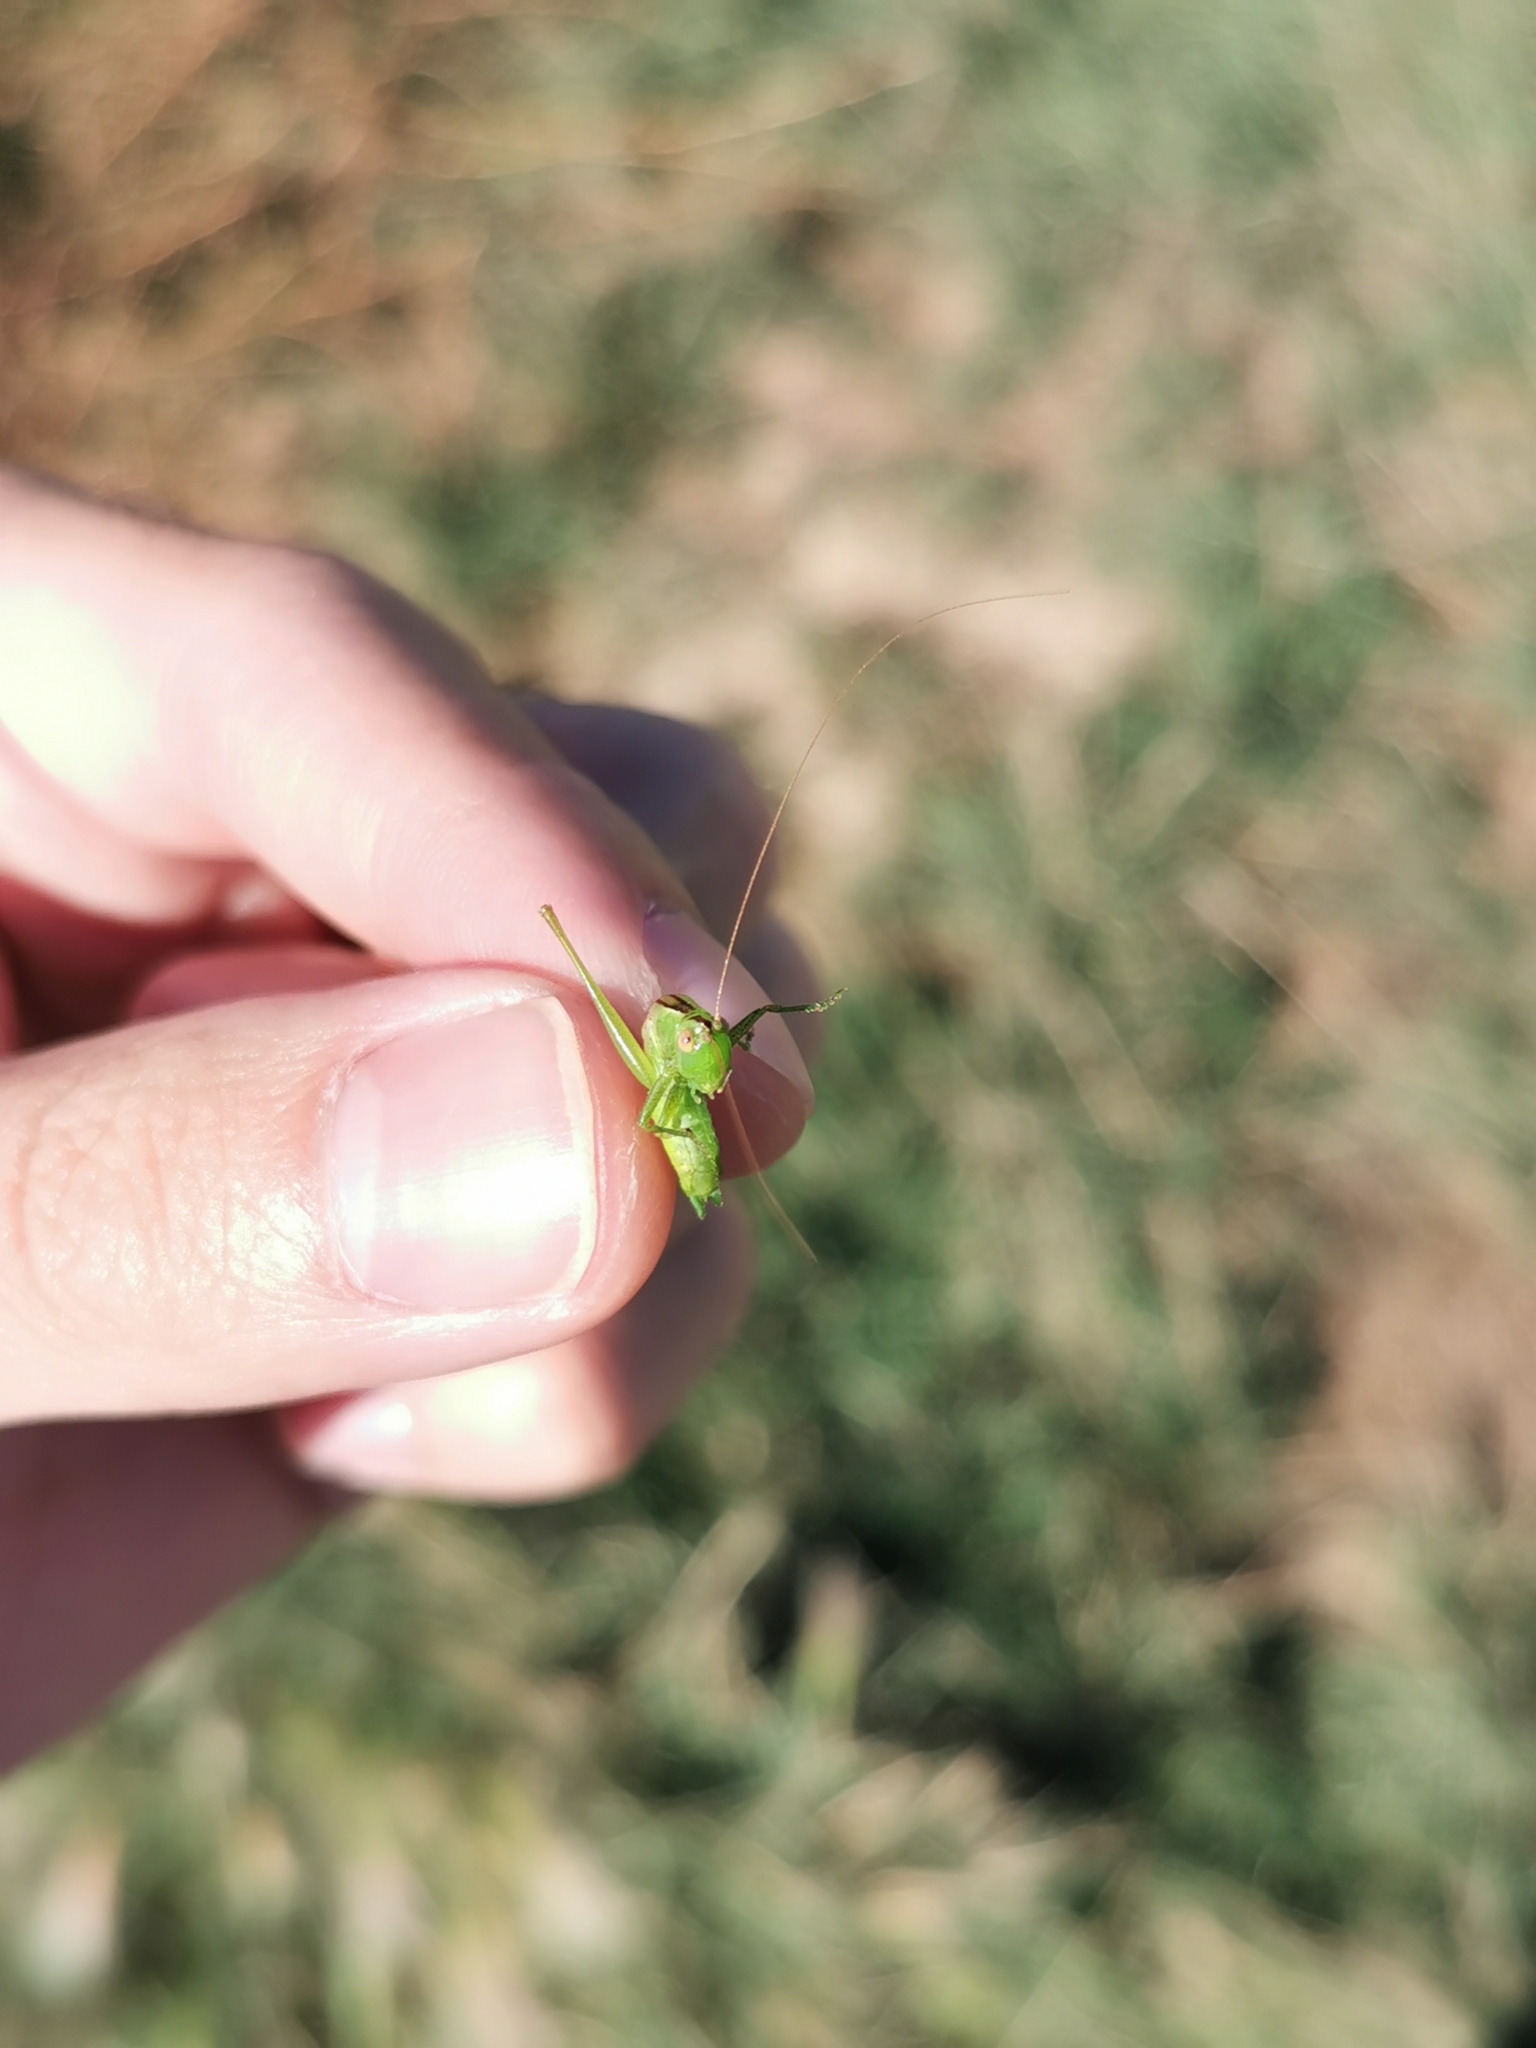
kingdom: Animalia
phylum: Arthropoda
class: Insecta
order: Orthoptera
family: Tettigoniidae
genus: Conocephalus
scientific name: Conocephalus fasciatus
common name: Slender meadow katydid
